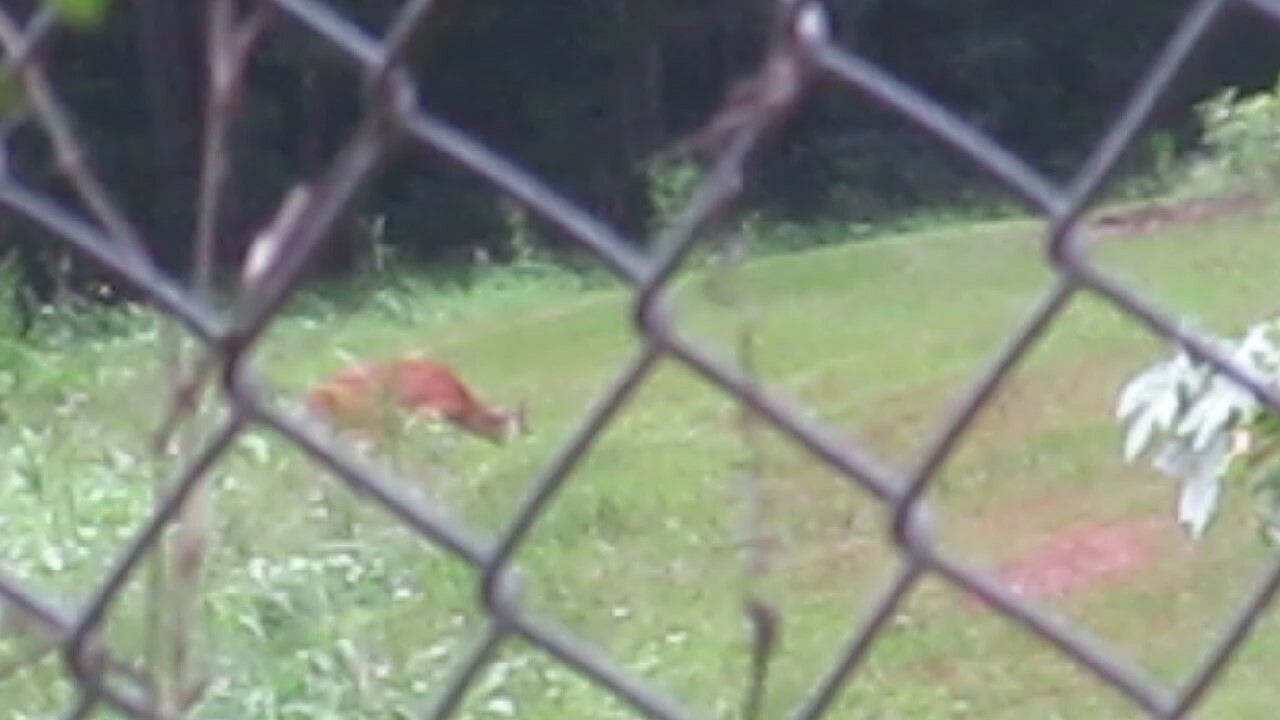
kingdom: Animalia
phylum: Chordata
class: Mammalia
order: Artiodactyla
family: Cervidae
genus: Odocoileus
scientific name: Odocoileus virginianus
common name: White-tailed deer
